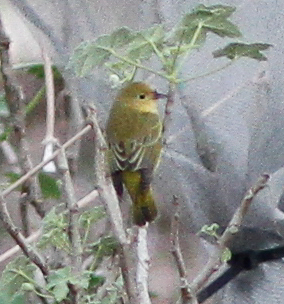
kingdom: Animalia
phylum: Chordata
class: Aves
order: Passeriformes
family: Parulidae
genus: Setophaga
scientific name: Setophaga petechia
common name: Yellow warbler
